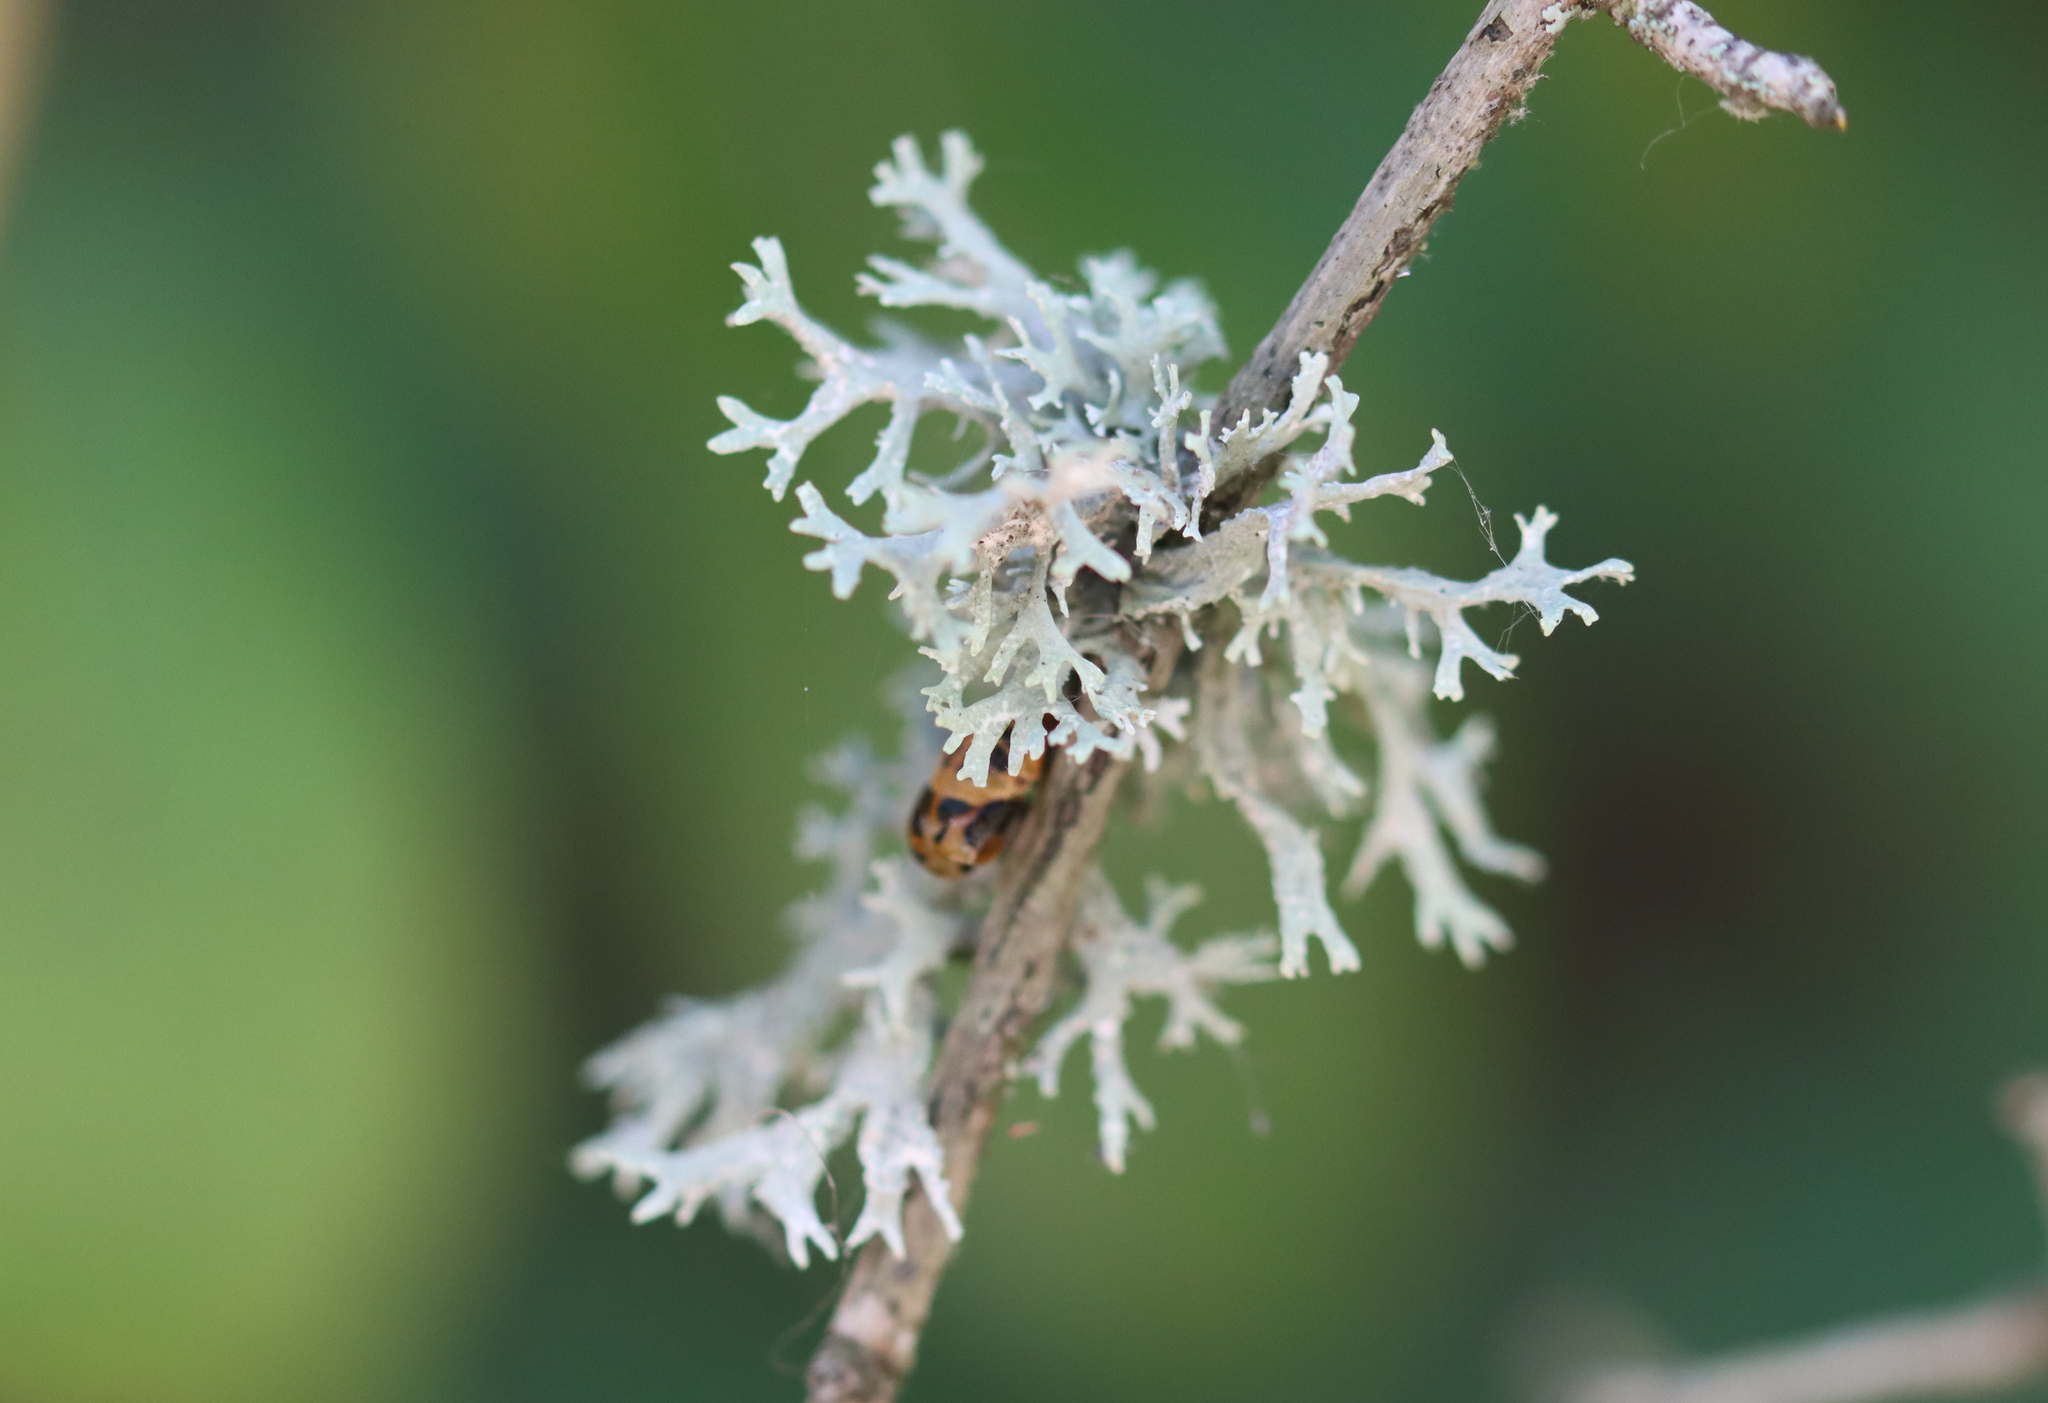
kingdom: Fungi
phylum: Ascomycota
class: Lecanoromycetes
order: Lecanorales
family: Parmeliaceae
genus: Evernia
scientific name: Evernia prunastri
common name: Oak moss
